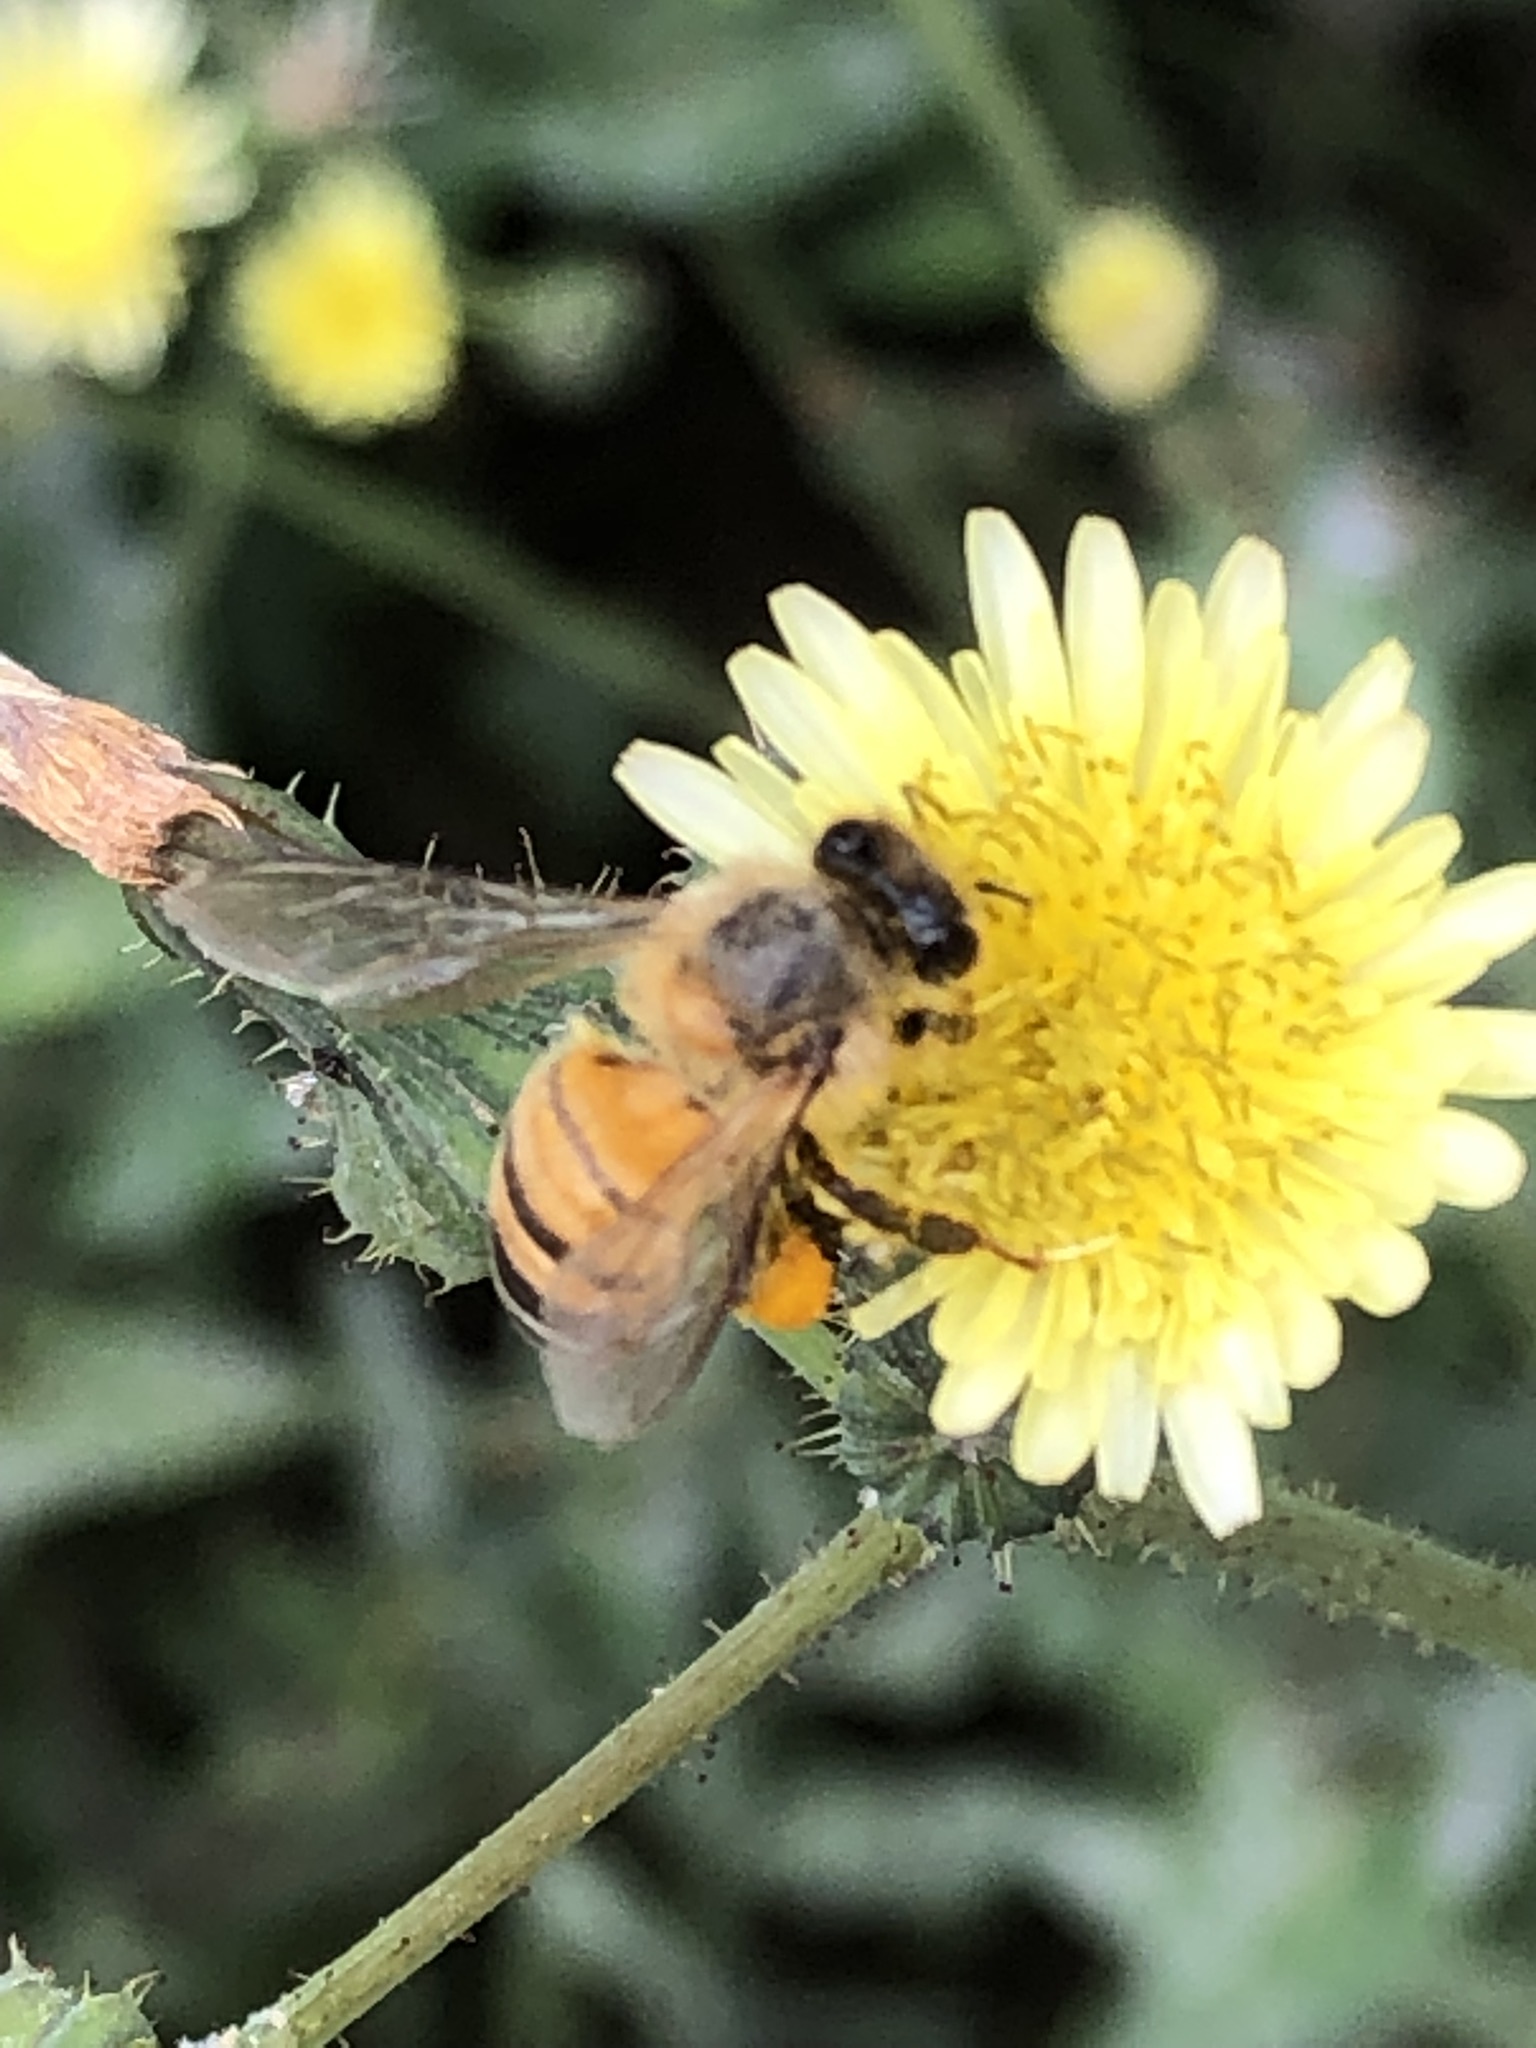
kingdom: Animalia
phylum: Arthropoda
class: Insecta
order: Hymenoptera
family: Apidae
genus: Apis
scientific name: Apis mellifera
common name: Honey bee
